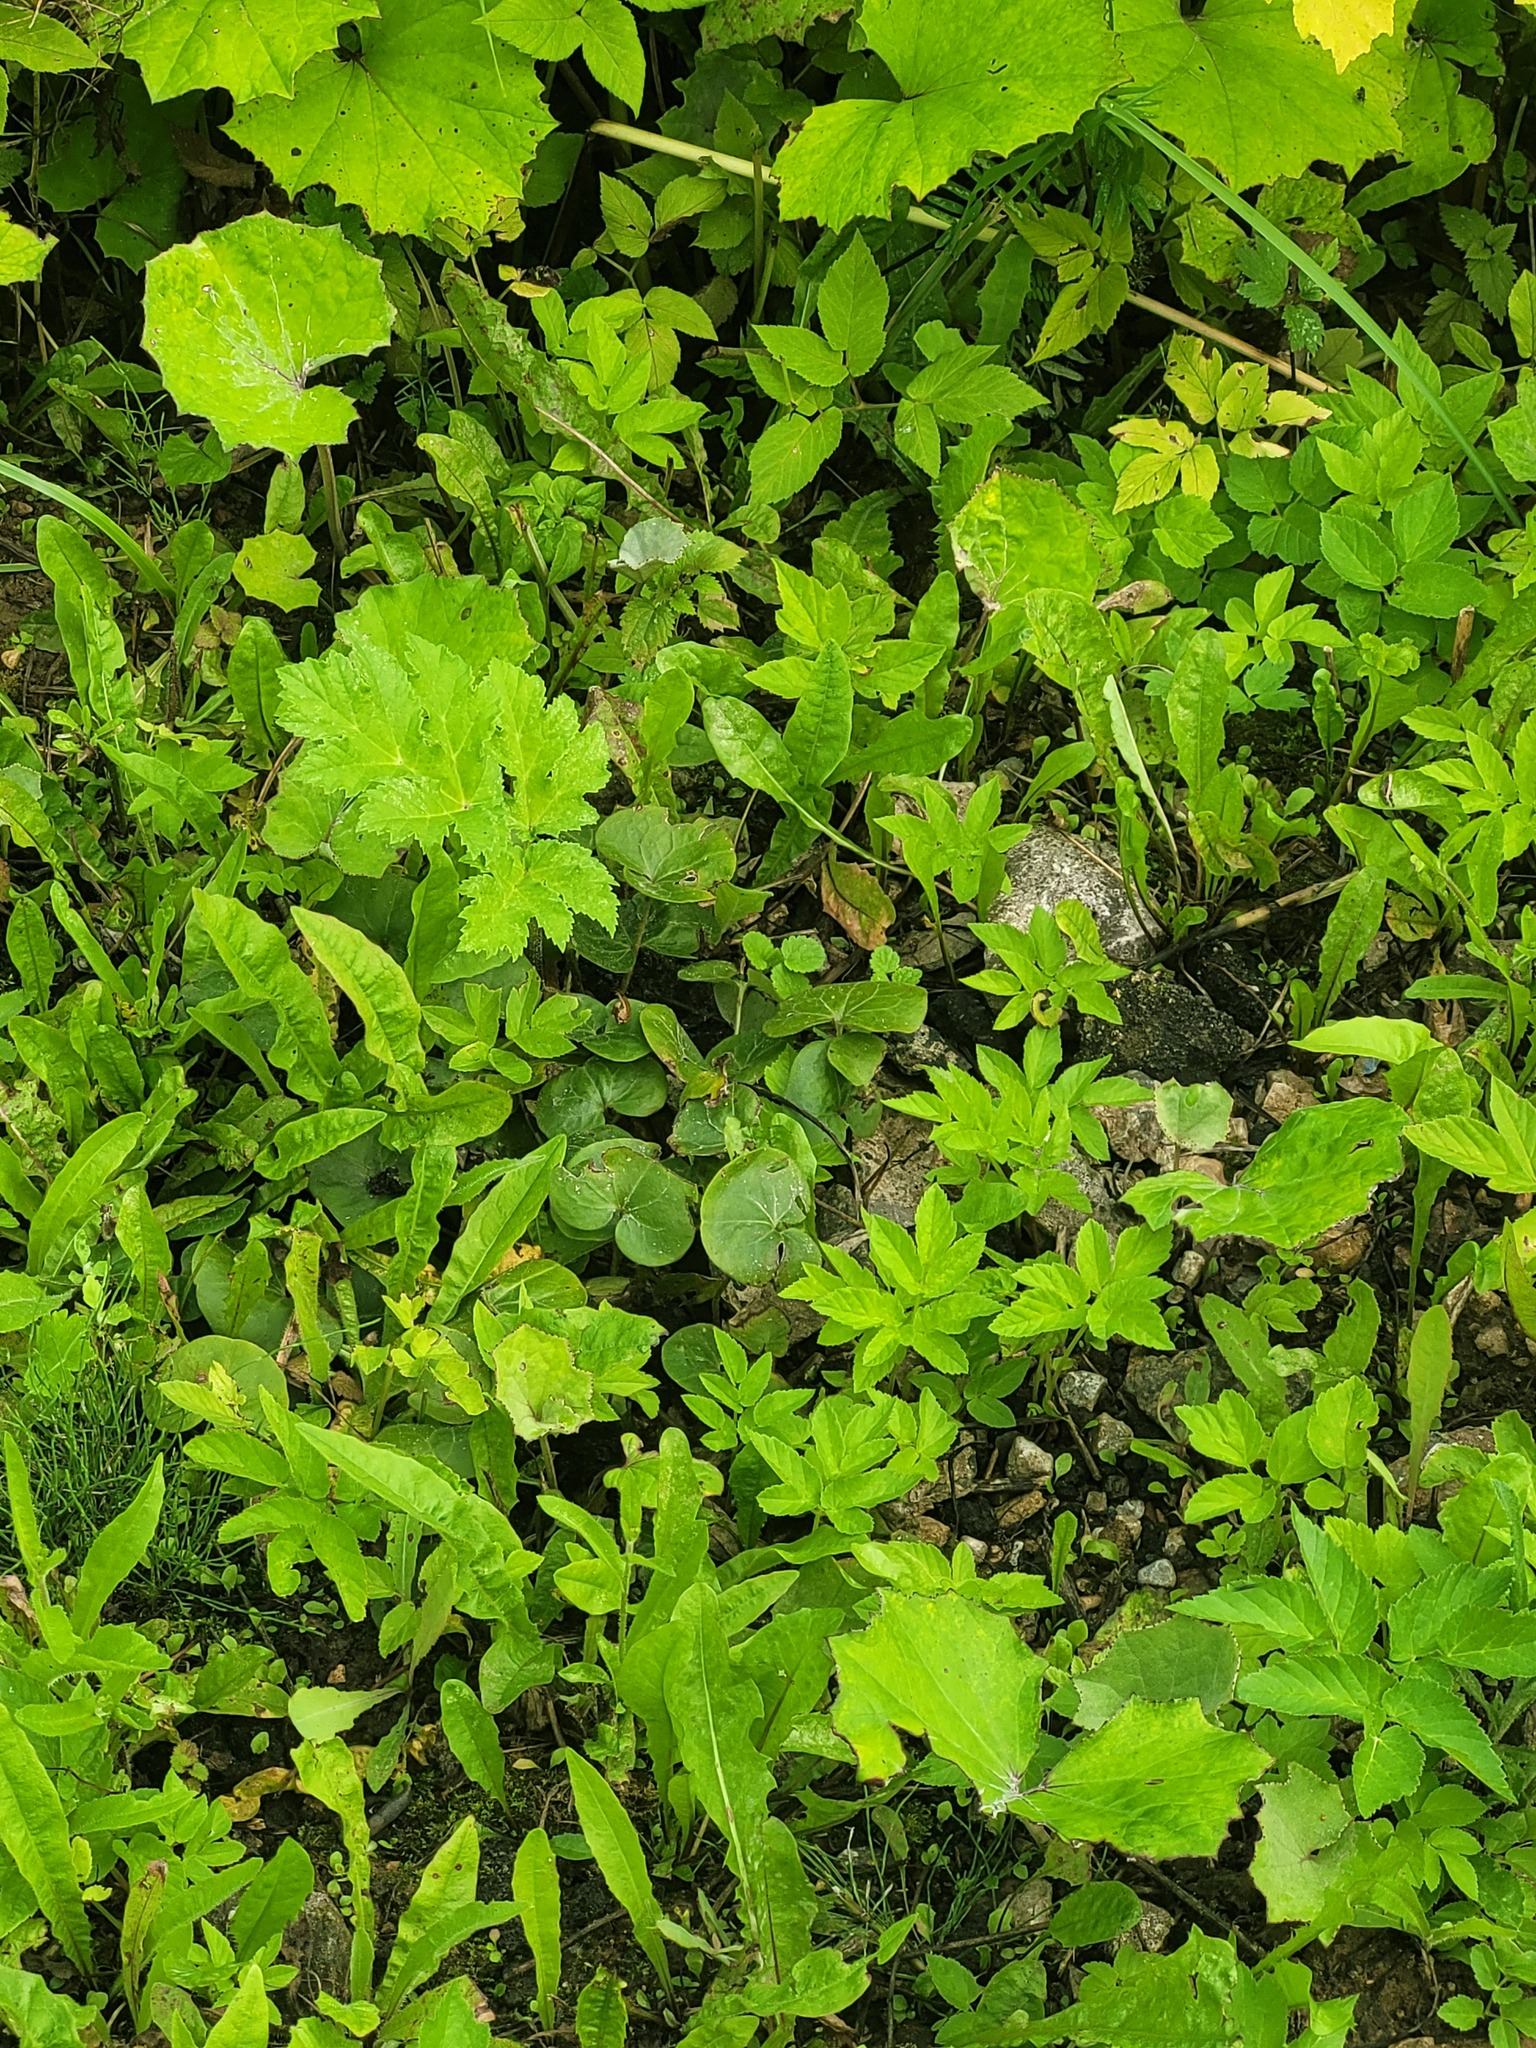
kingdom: Plantae
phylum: Tracheophyta
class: Magnoliopsida
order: Piperales
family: Aristolochiaceae
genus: Asarum
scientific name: Asarum europaeum
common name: Asarabacca
